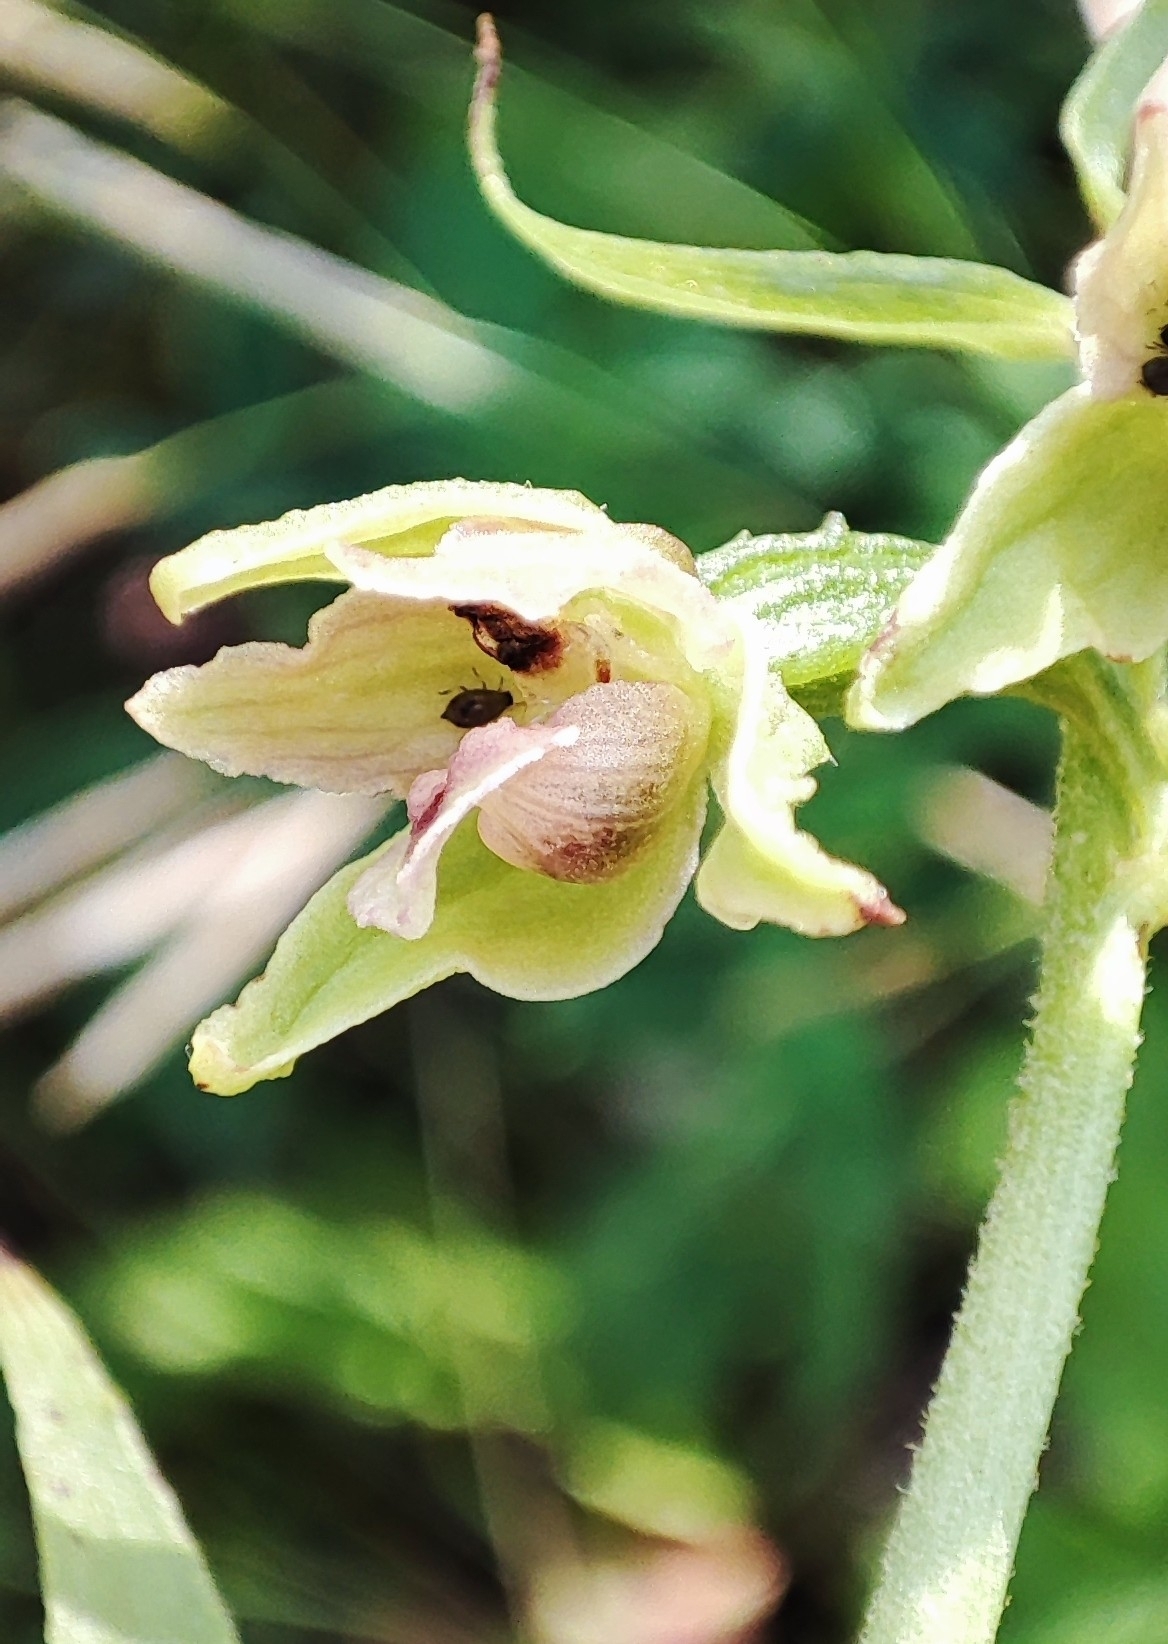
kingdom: Plantae
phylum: Tracheophyta
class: Liliopsida
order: Asparagales
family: Orchidaceae
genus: Epipactis
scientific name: Epipactis helleborine
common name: Broad-leaved helleborine
